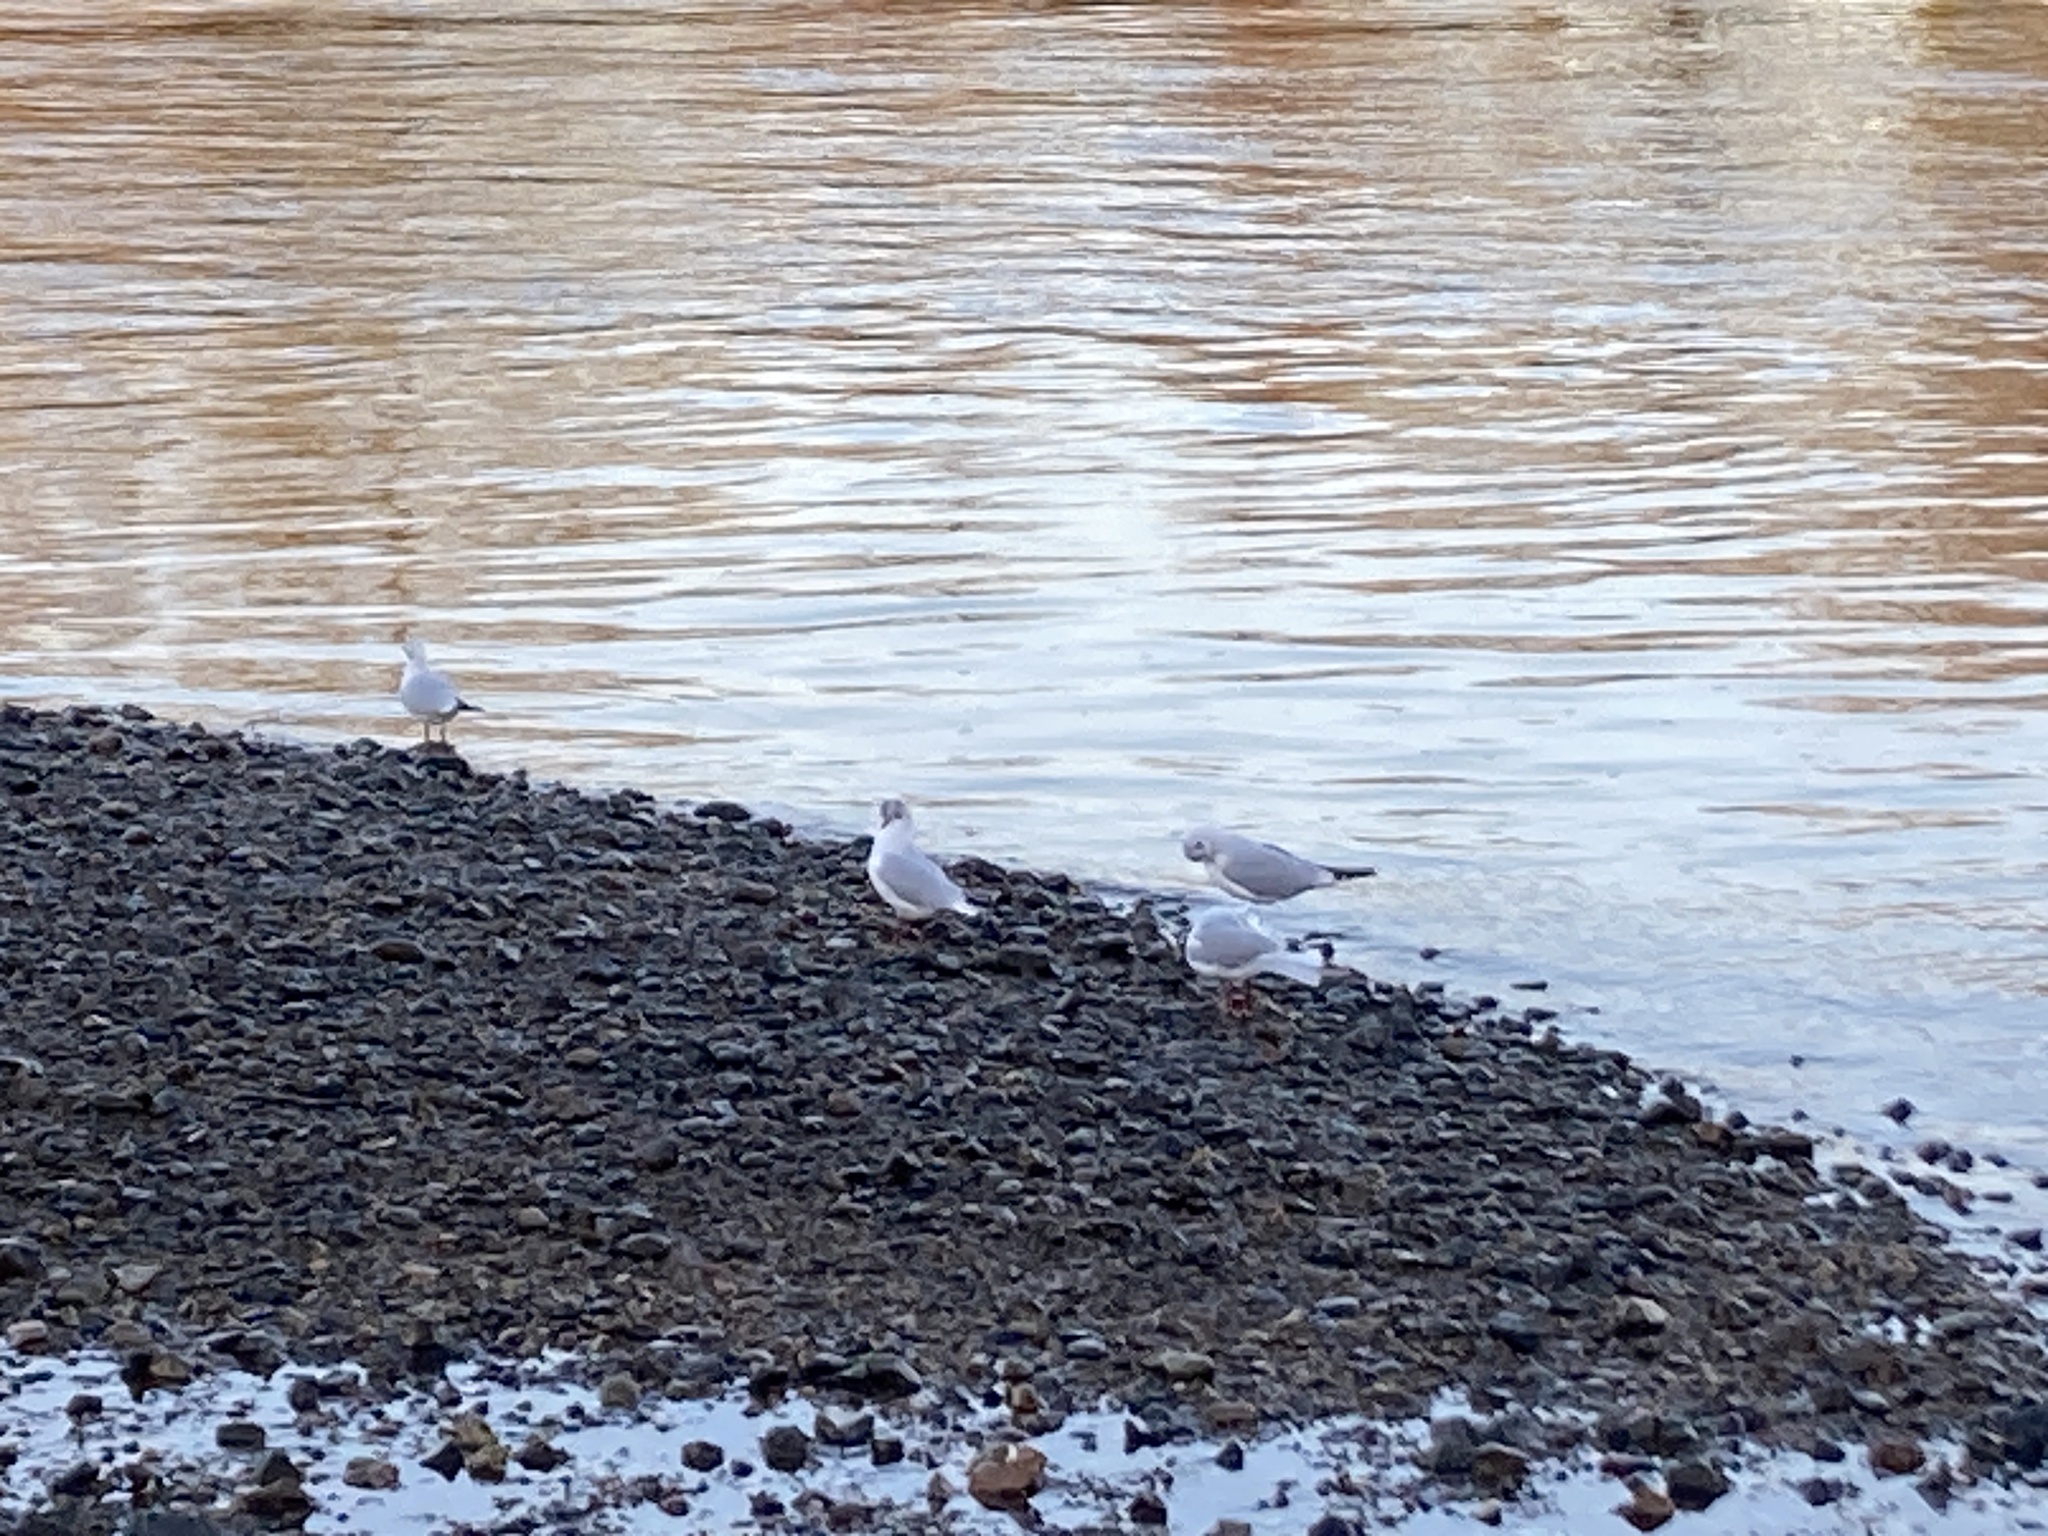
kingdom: Animalia
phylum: Chordata
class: Aves
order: Charadriiformes
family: Laridae
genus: Chroicocephalus
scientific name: Chroicocephalus ridibundus
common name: Black-headed gull
